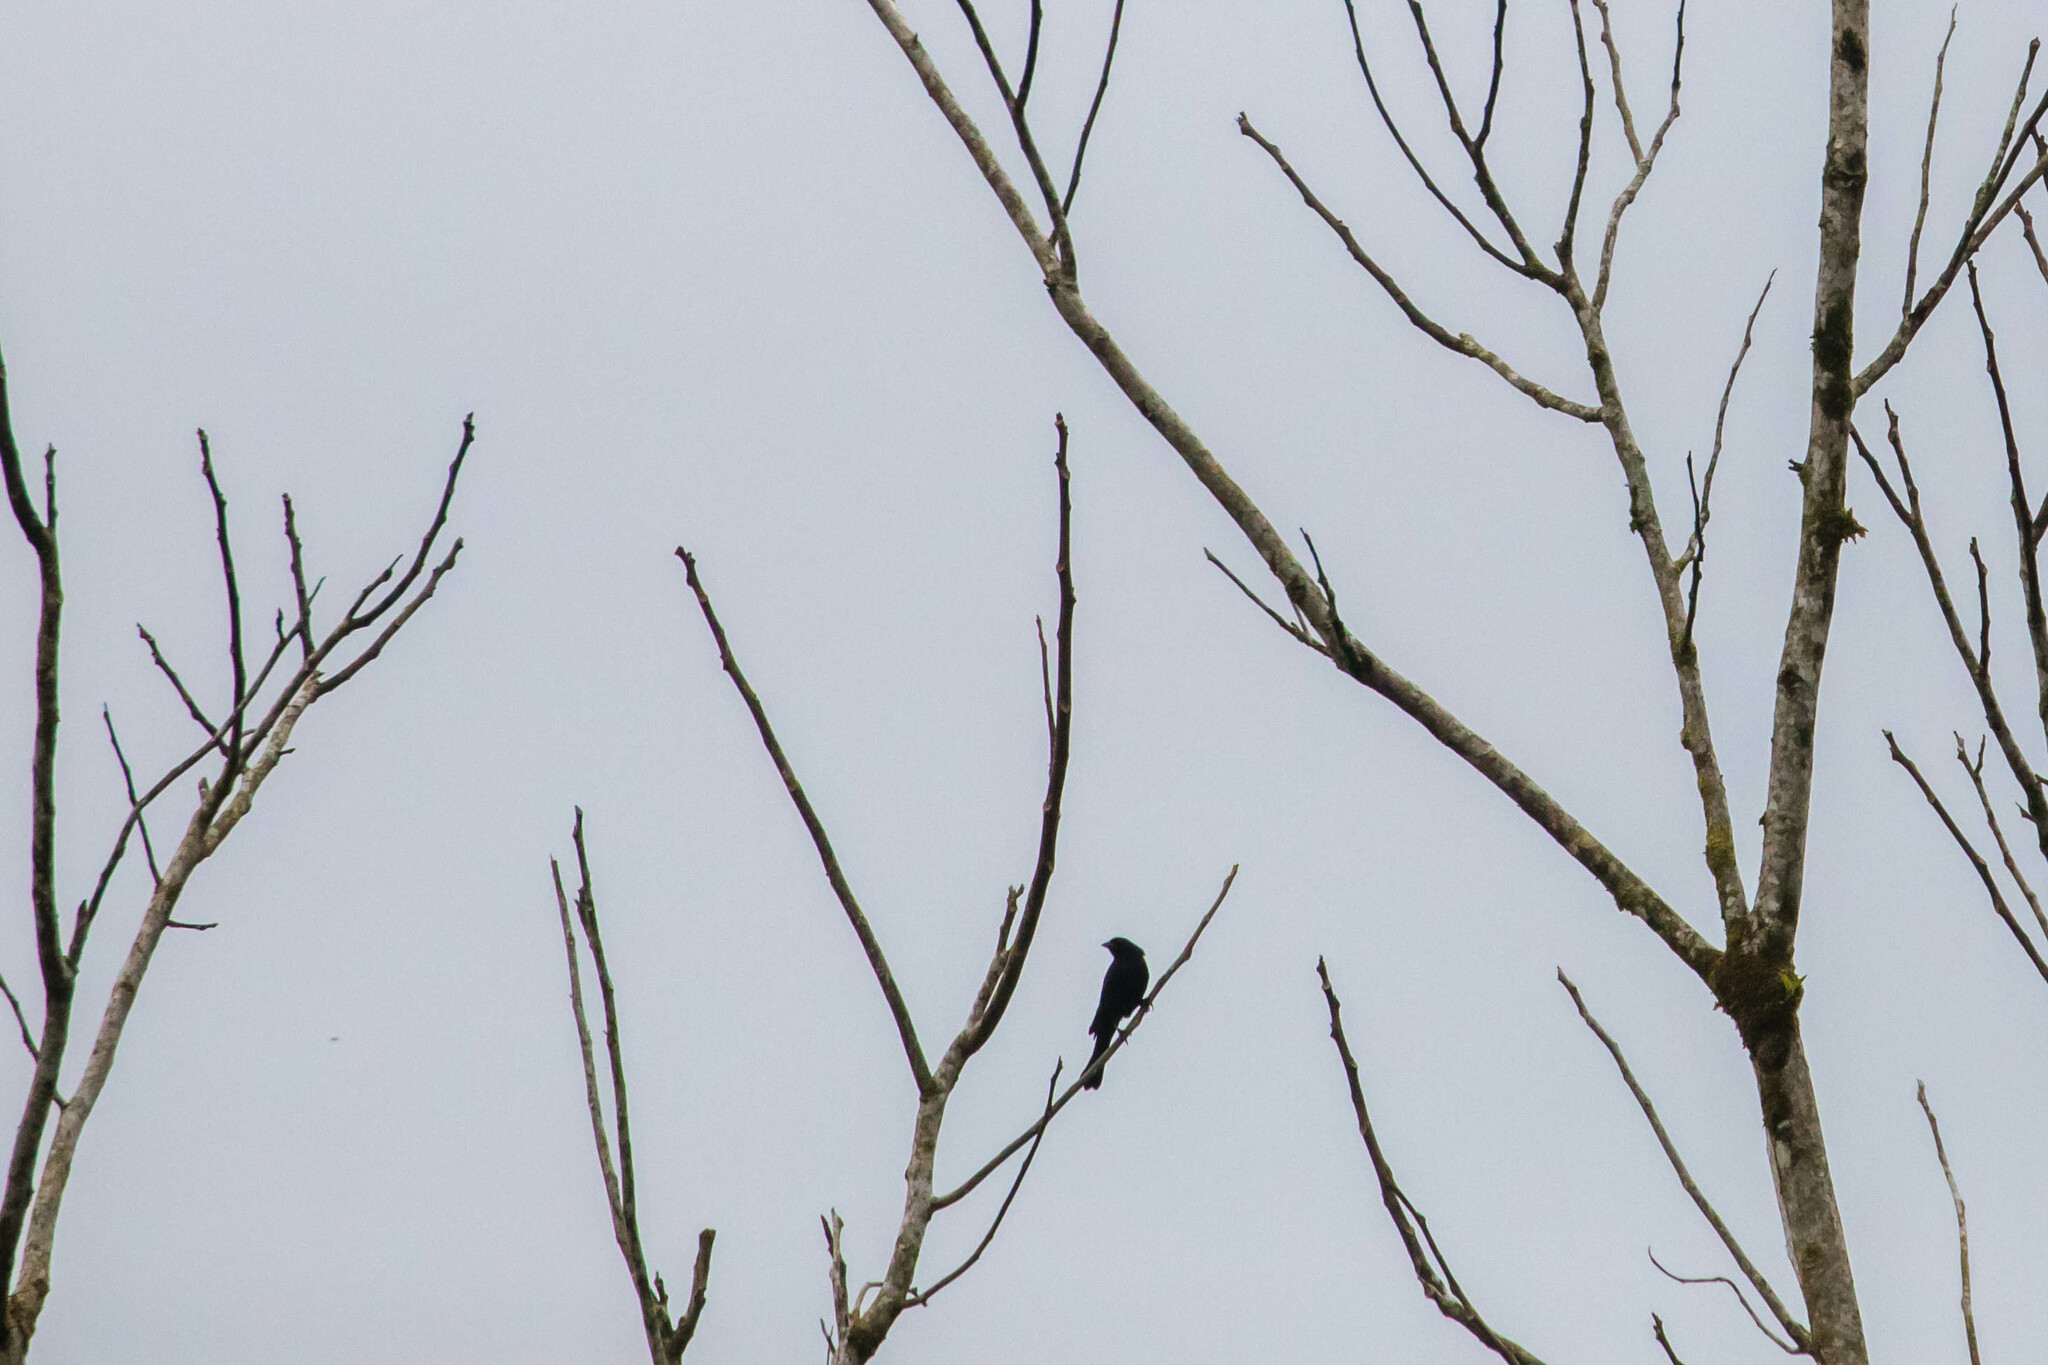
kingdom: Animalia
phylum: Chordata
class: Aves
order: Passeriformes
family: Icteridae
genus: Molothrus
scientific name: Molothrus bonariensis
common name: Shiny cowbird
